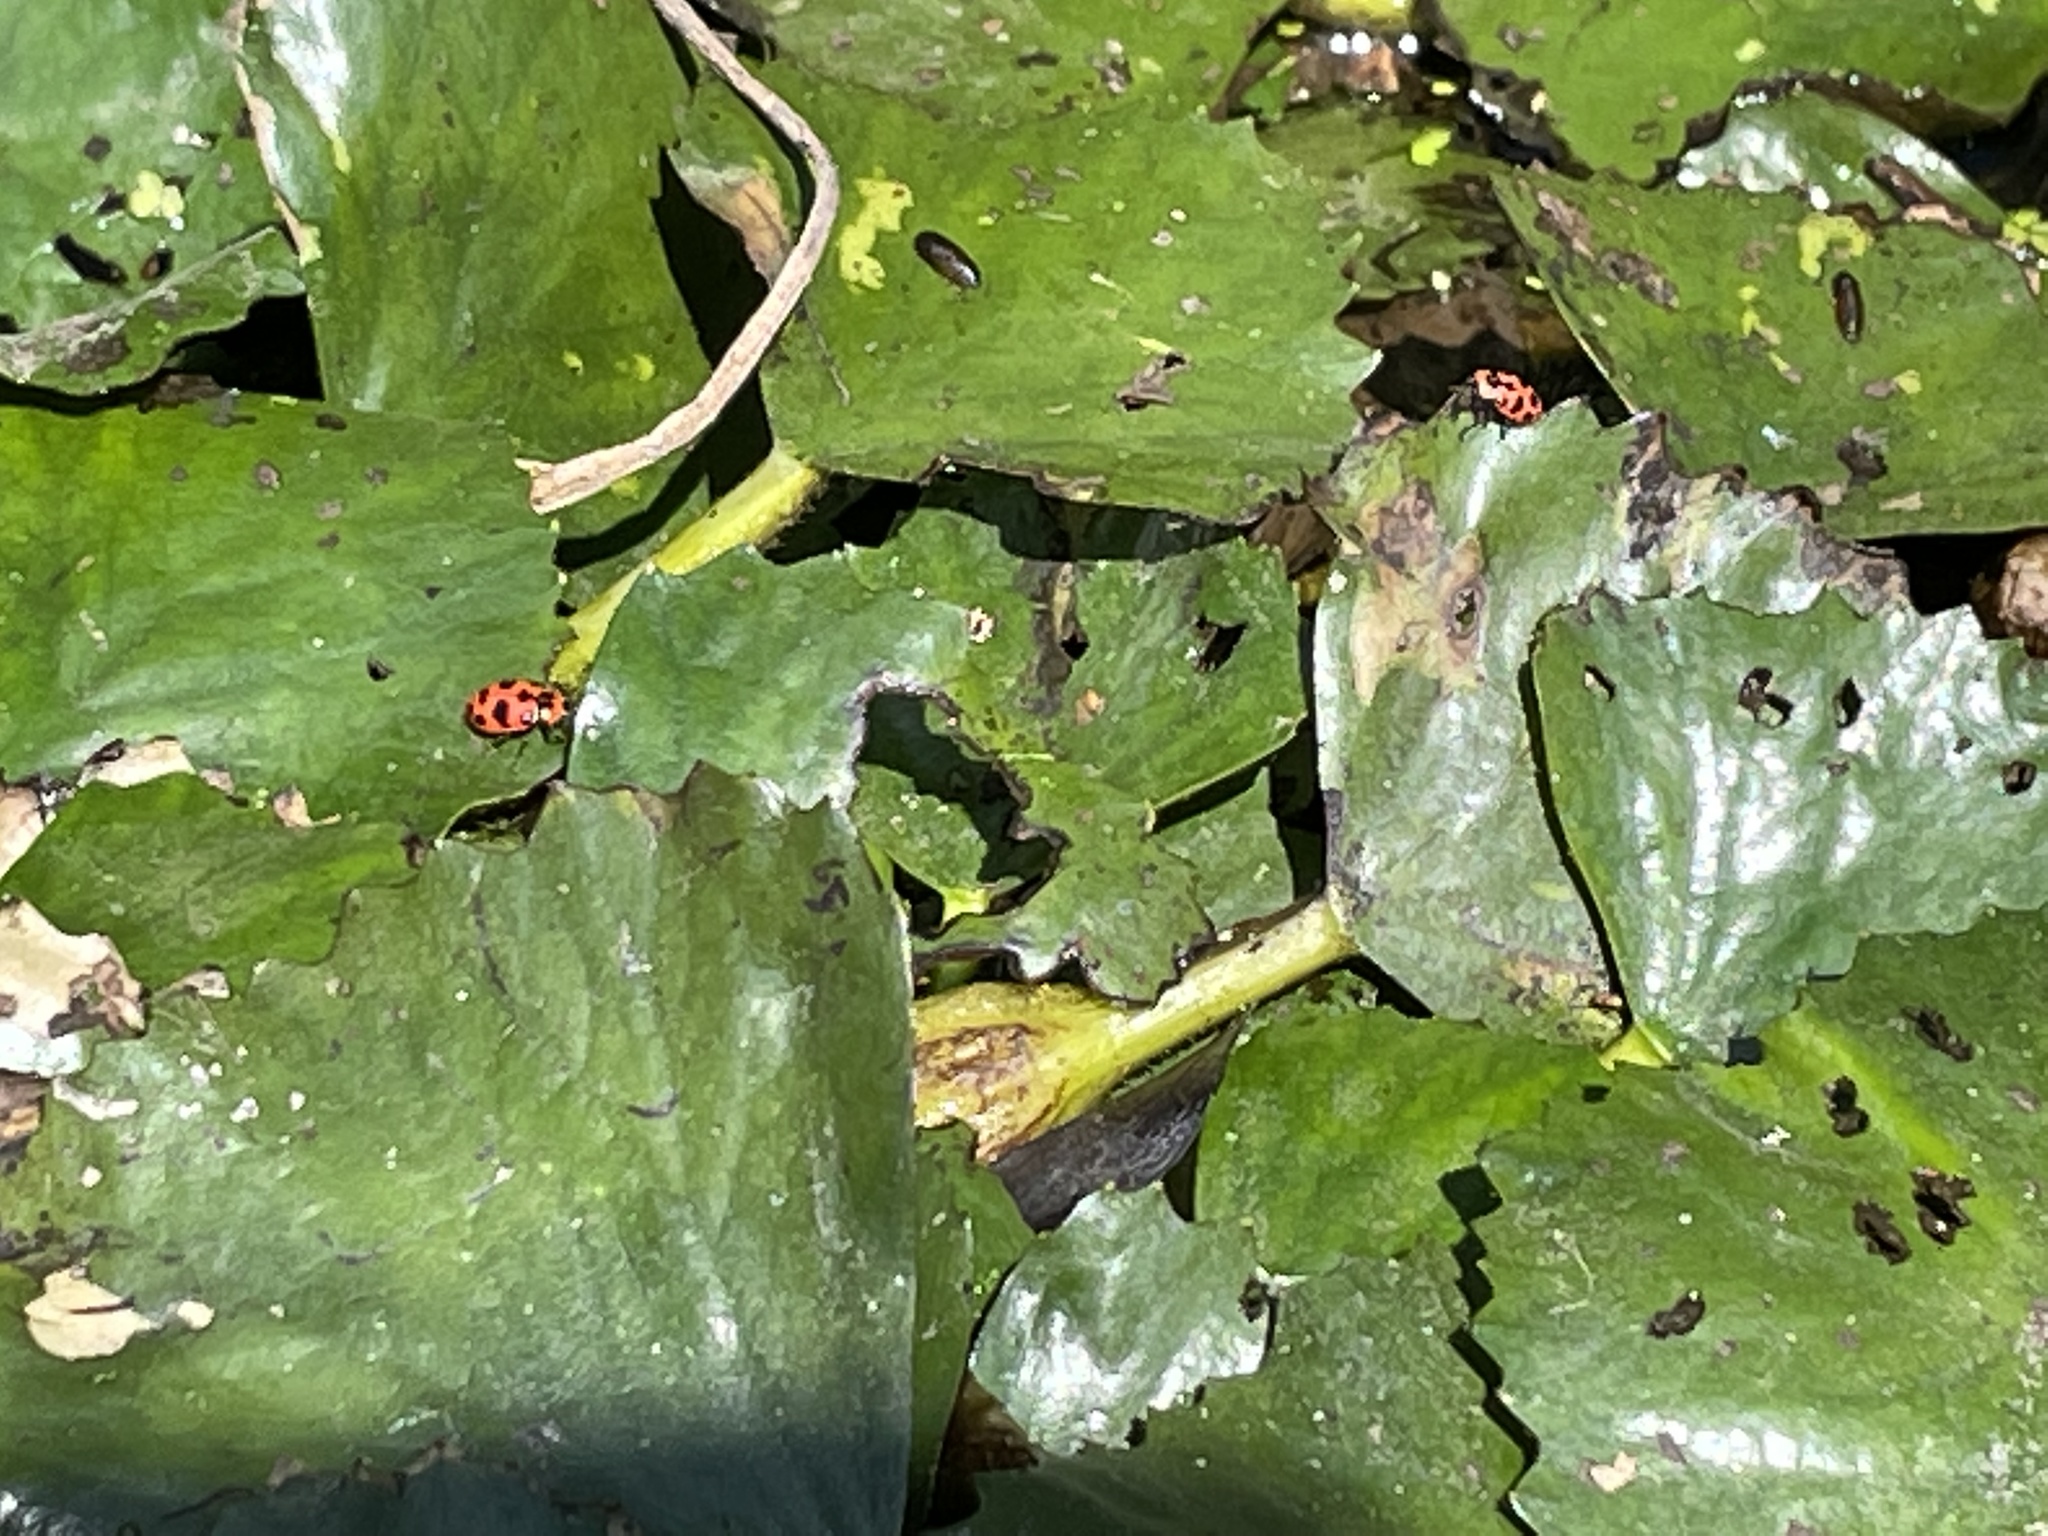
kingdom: Animalia
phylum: Arthropoda
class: Insecta
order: Coleoptera
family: Coccinellidae
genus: Coleomegilla
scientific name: Coleomegilla maculata
